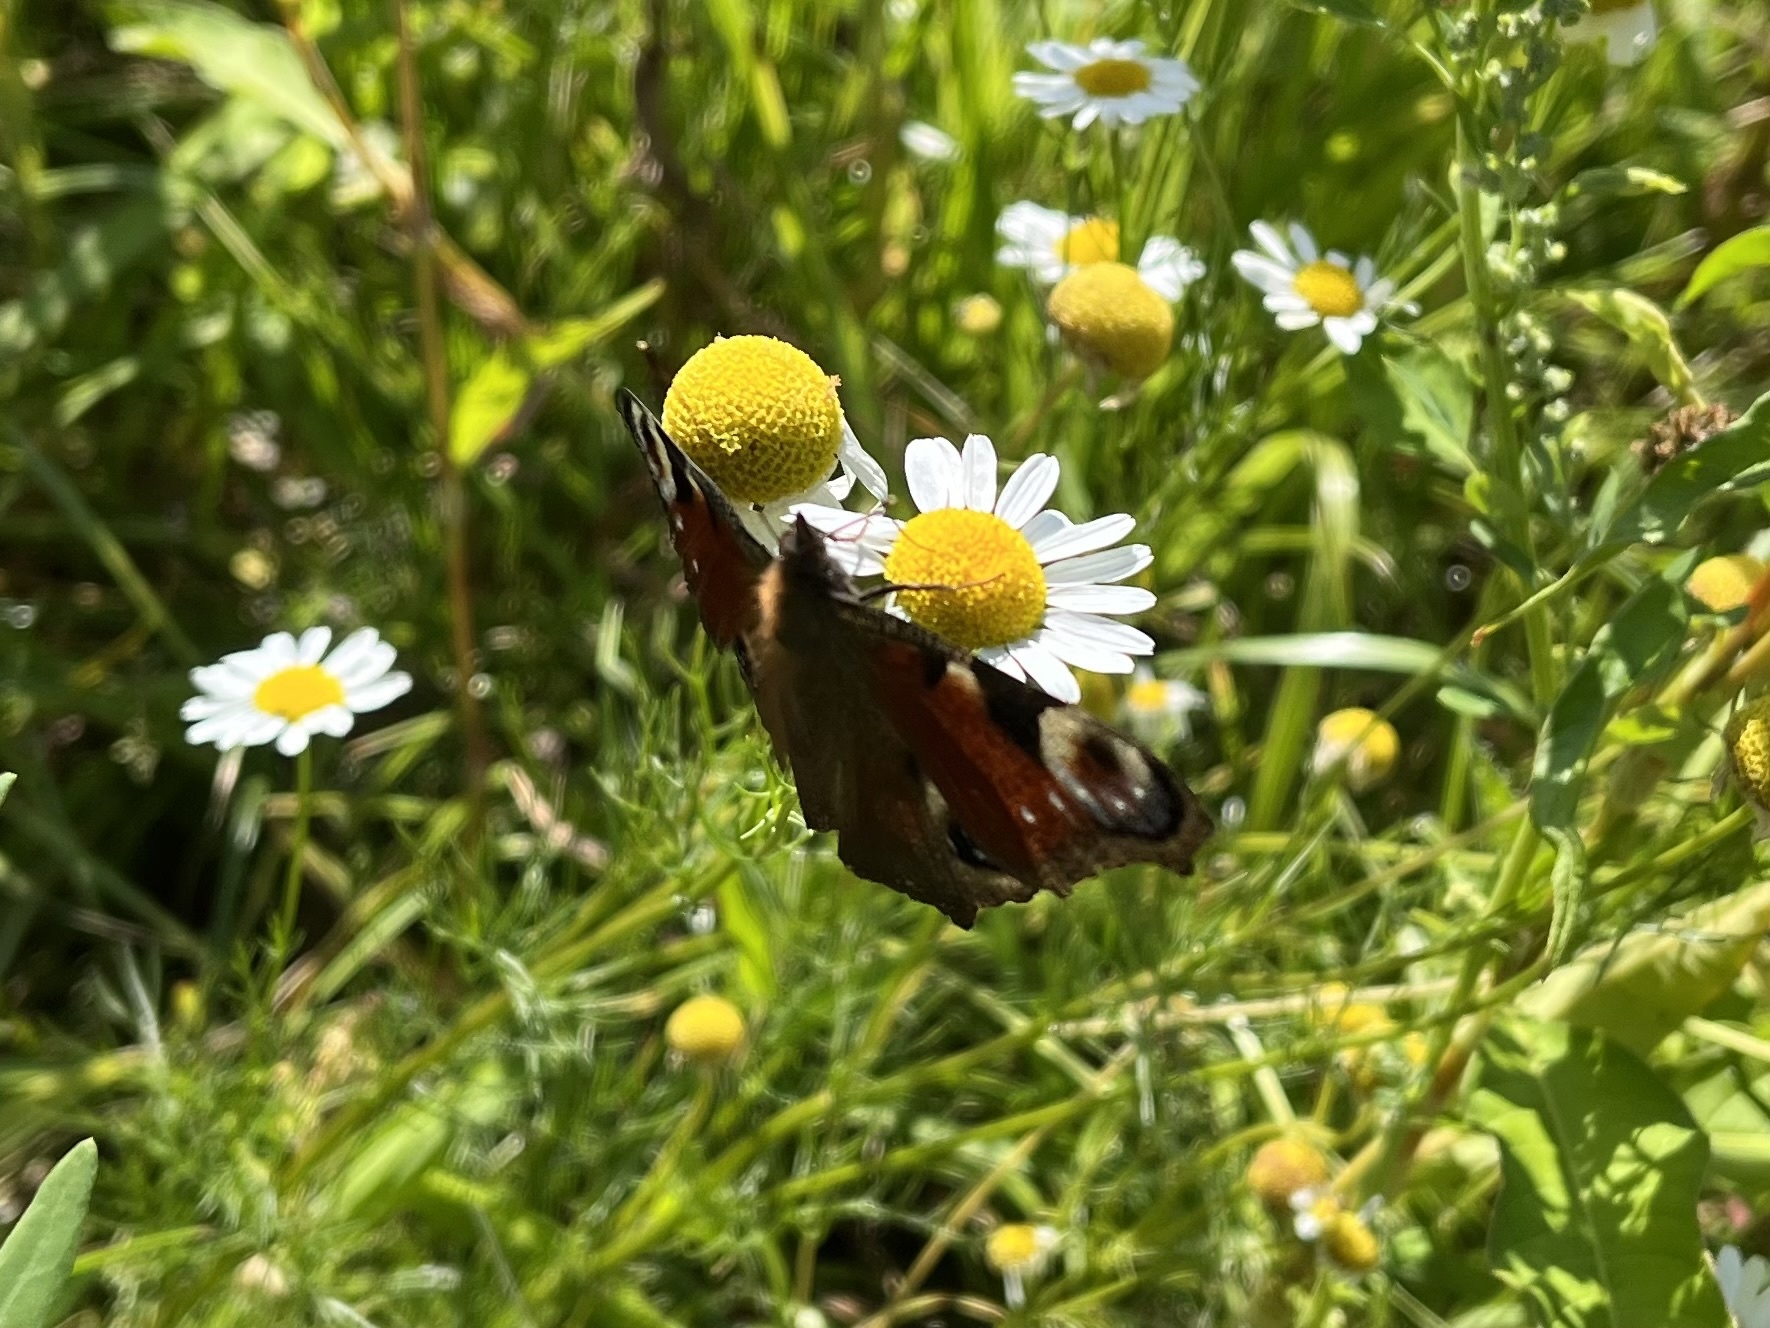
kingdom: Animalia
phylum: Arthropoda
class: Insecta
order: Lepidoptera
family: Nymphalidae
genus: Aglais
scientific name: Aglais io
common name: Peacock
